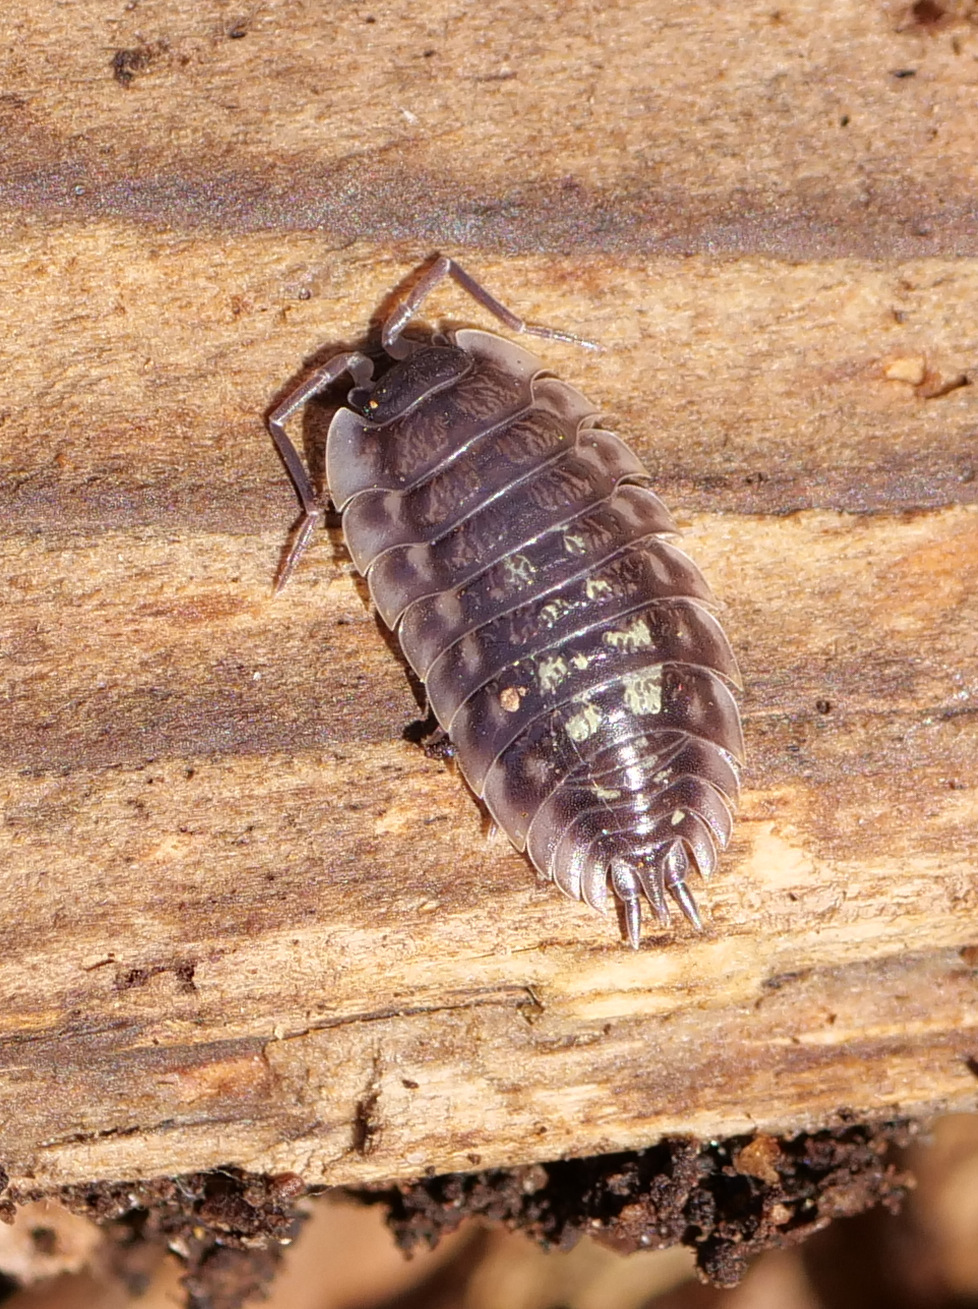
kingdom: Animalia
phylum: Arthropoda
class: Malacostraca
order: Isopoda
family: Oniscidae
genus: Oniscus
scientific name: Oniscus asellus
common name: Common shiny woodlouse
